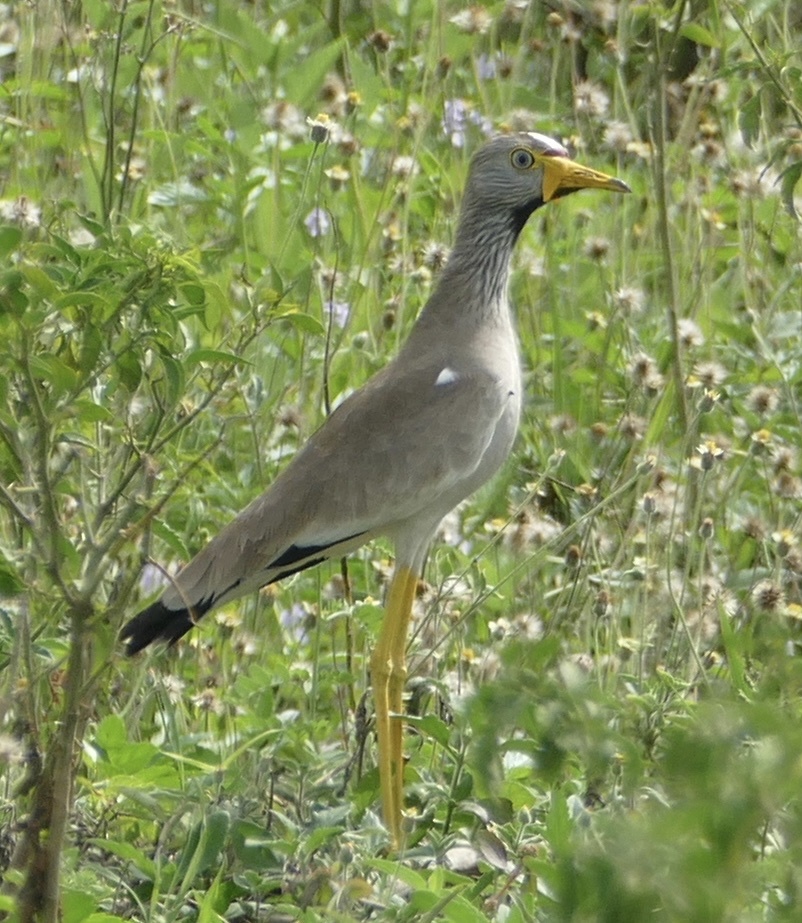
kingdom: Animalia
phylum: Chordata
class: Aves
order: Charadriiformes
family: Charadriidae
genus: Vanellus
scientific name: Vanellus senegallus
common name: African wattled lapwing
